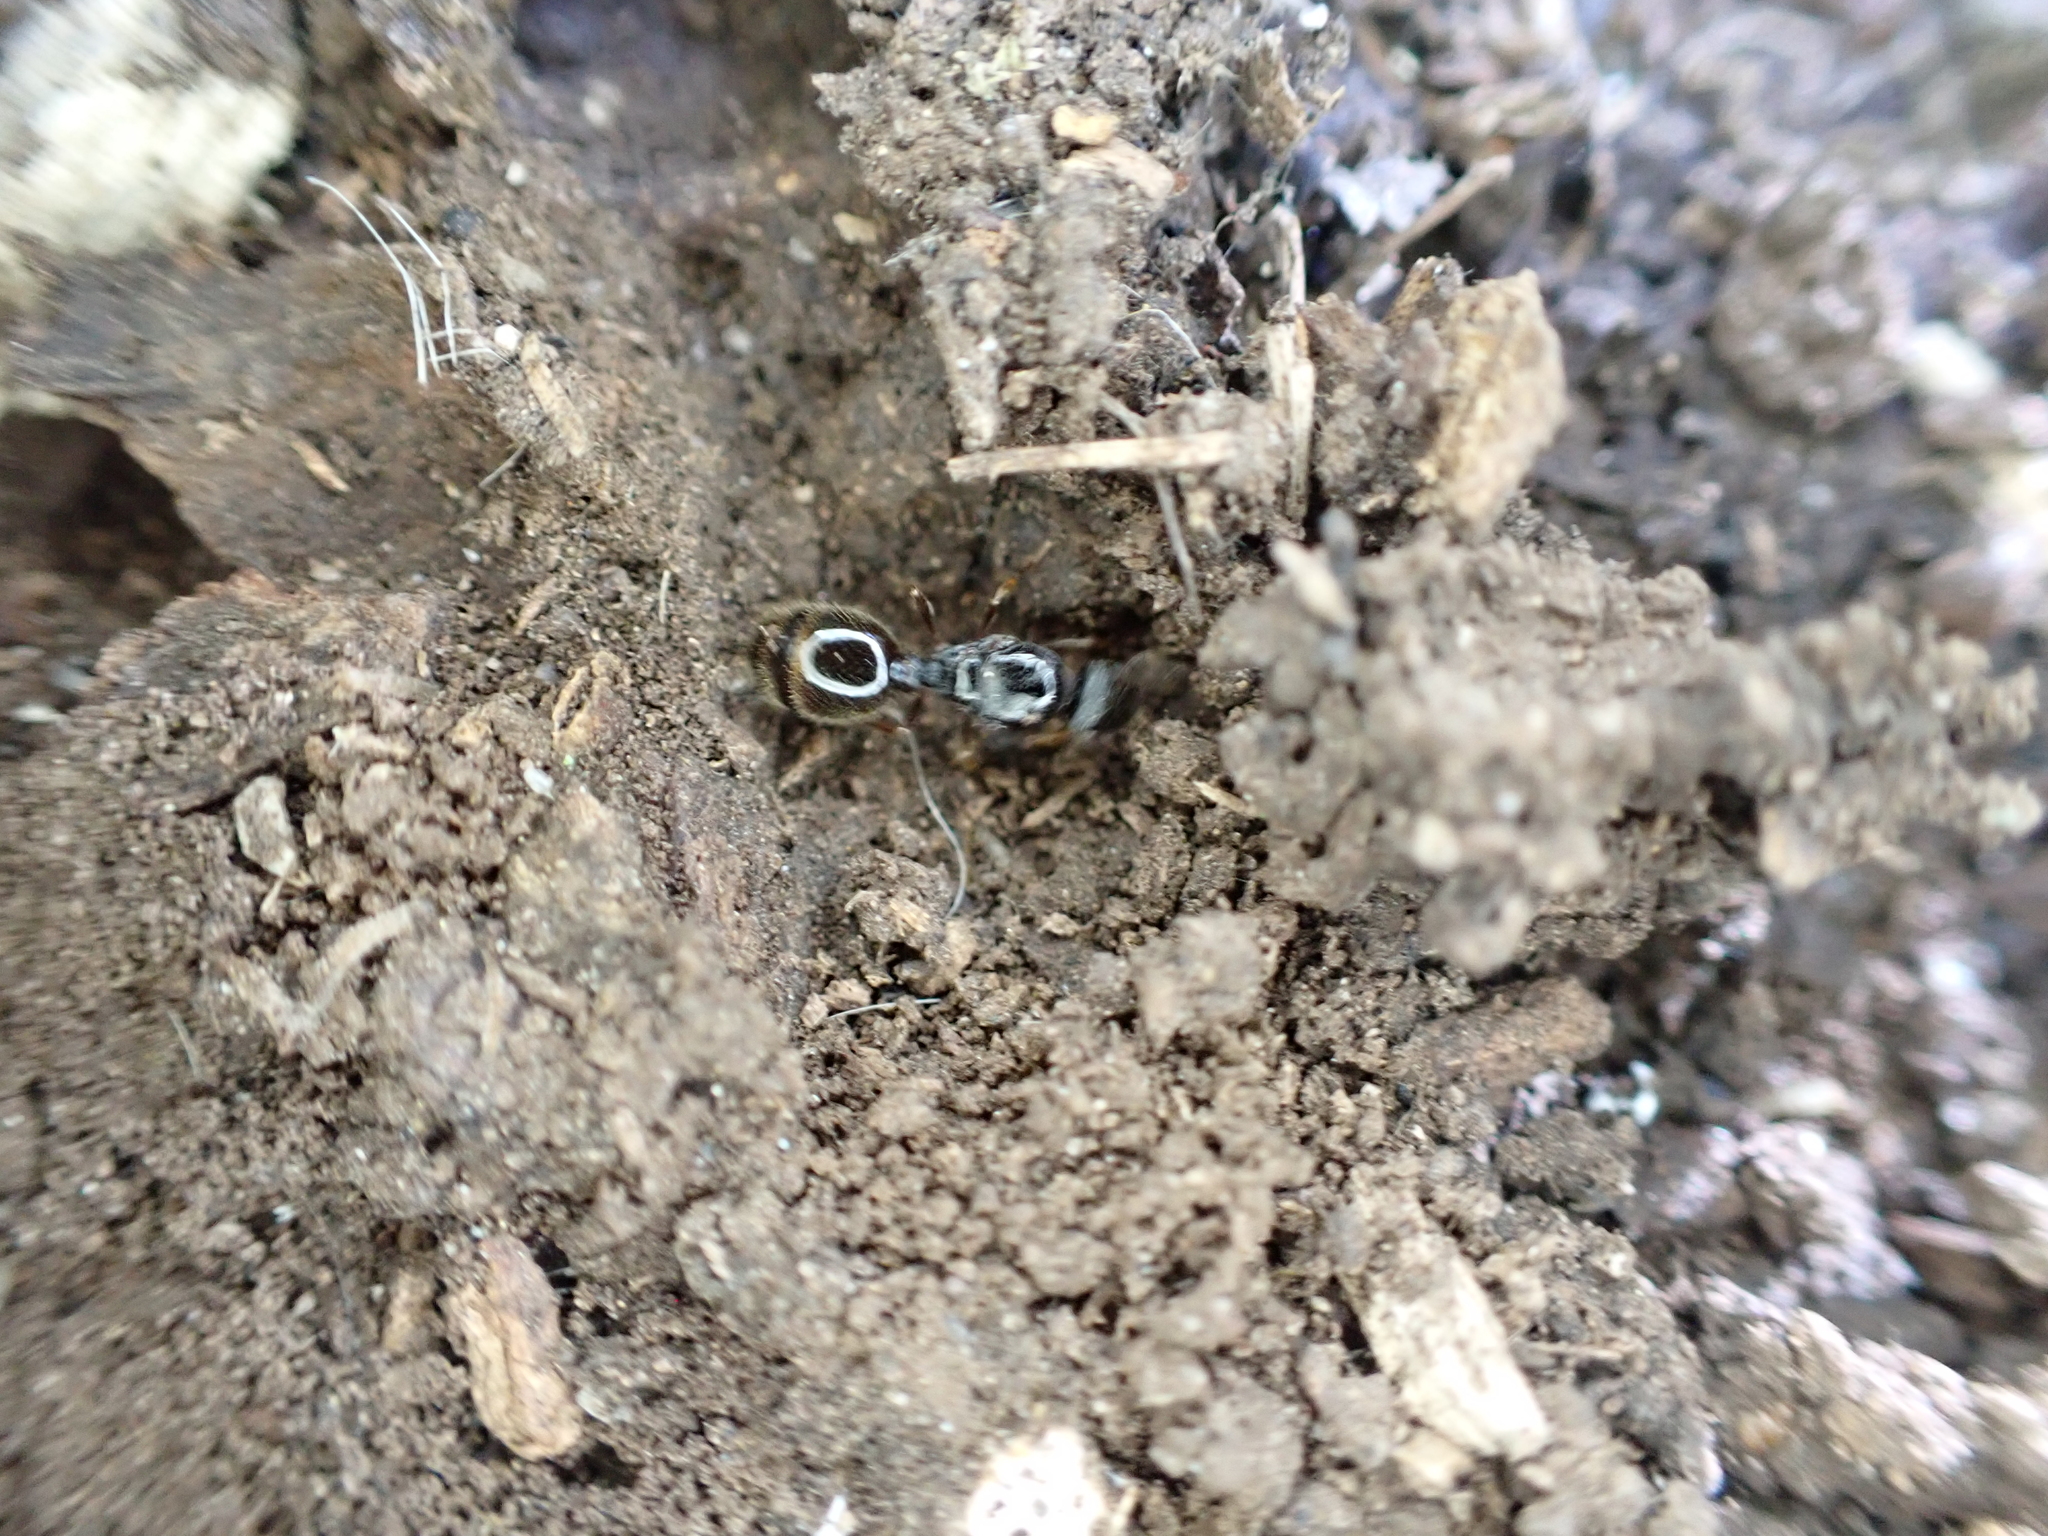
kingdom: Animalia
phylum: Arthropoda
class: Insecta
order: Hymenoptera
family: Formicidae
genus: Tetramorium
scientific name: Tetramorium immigrans
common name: Pavement ant
